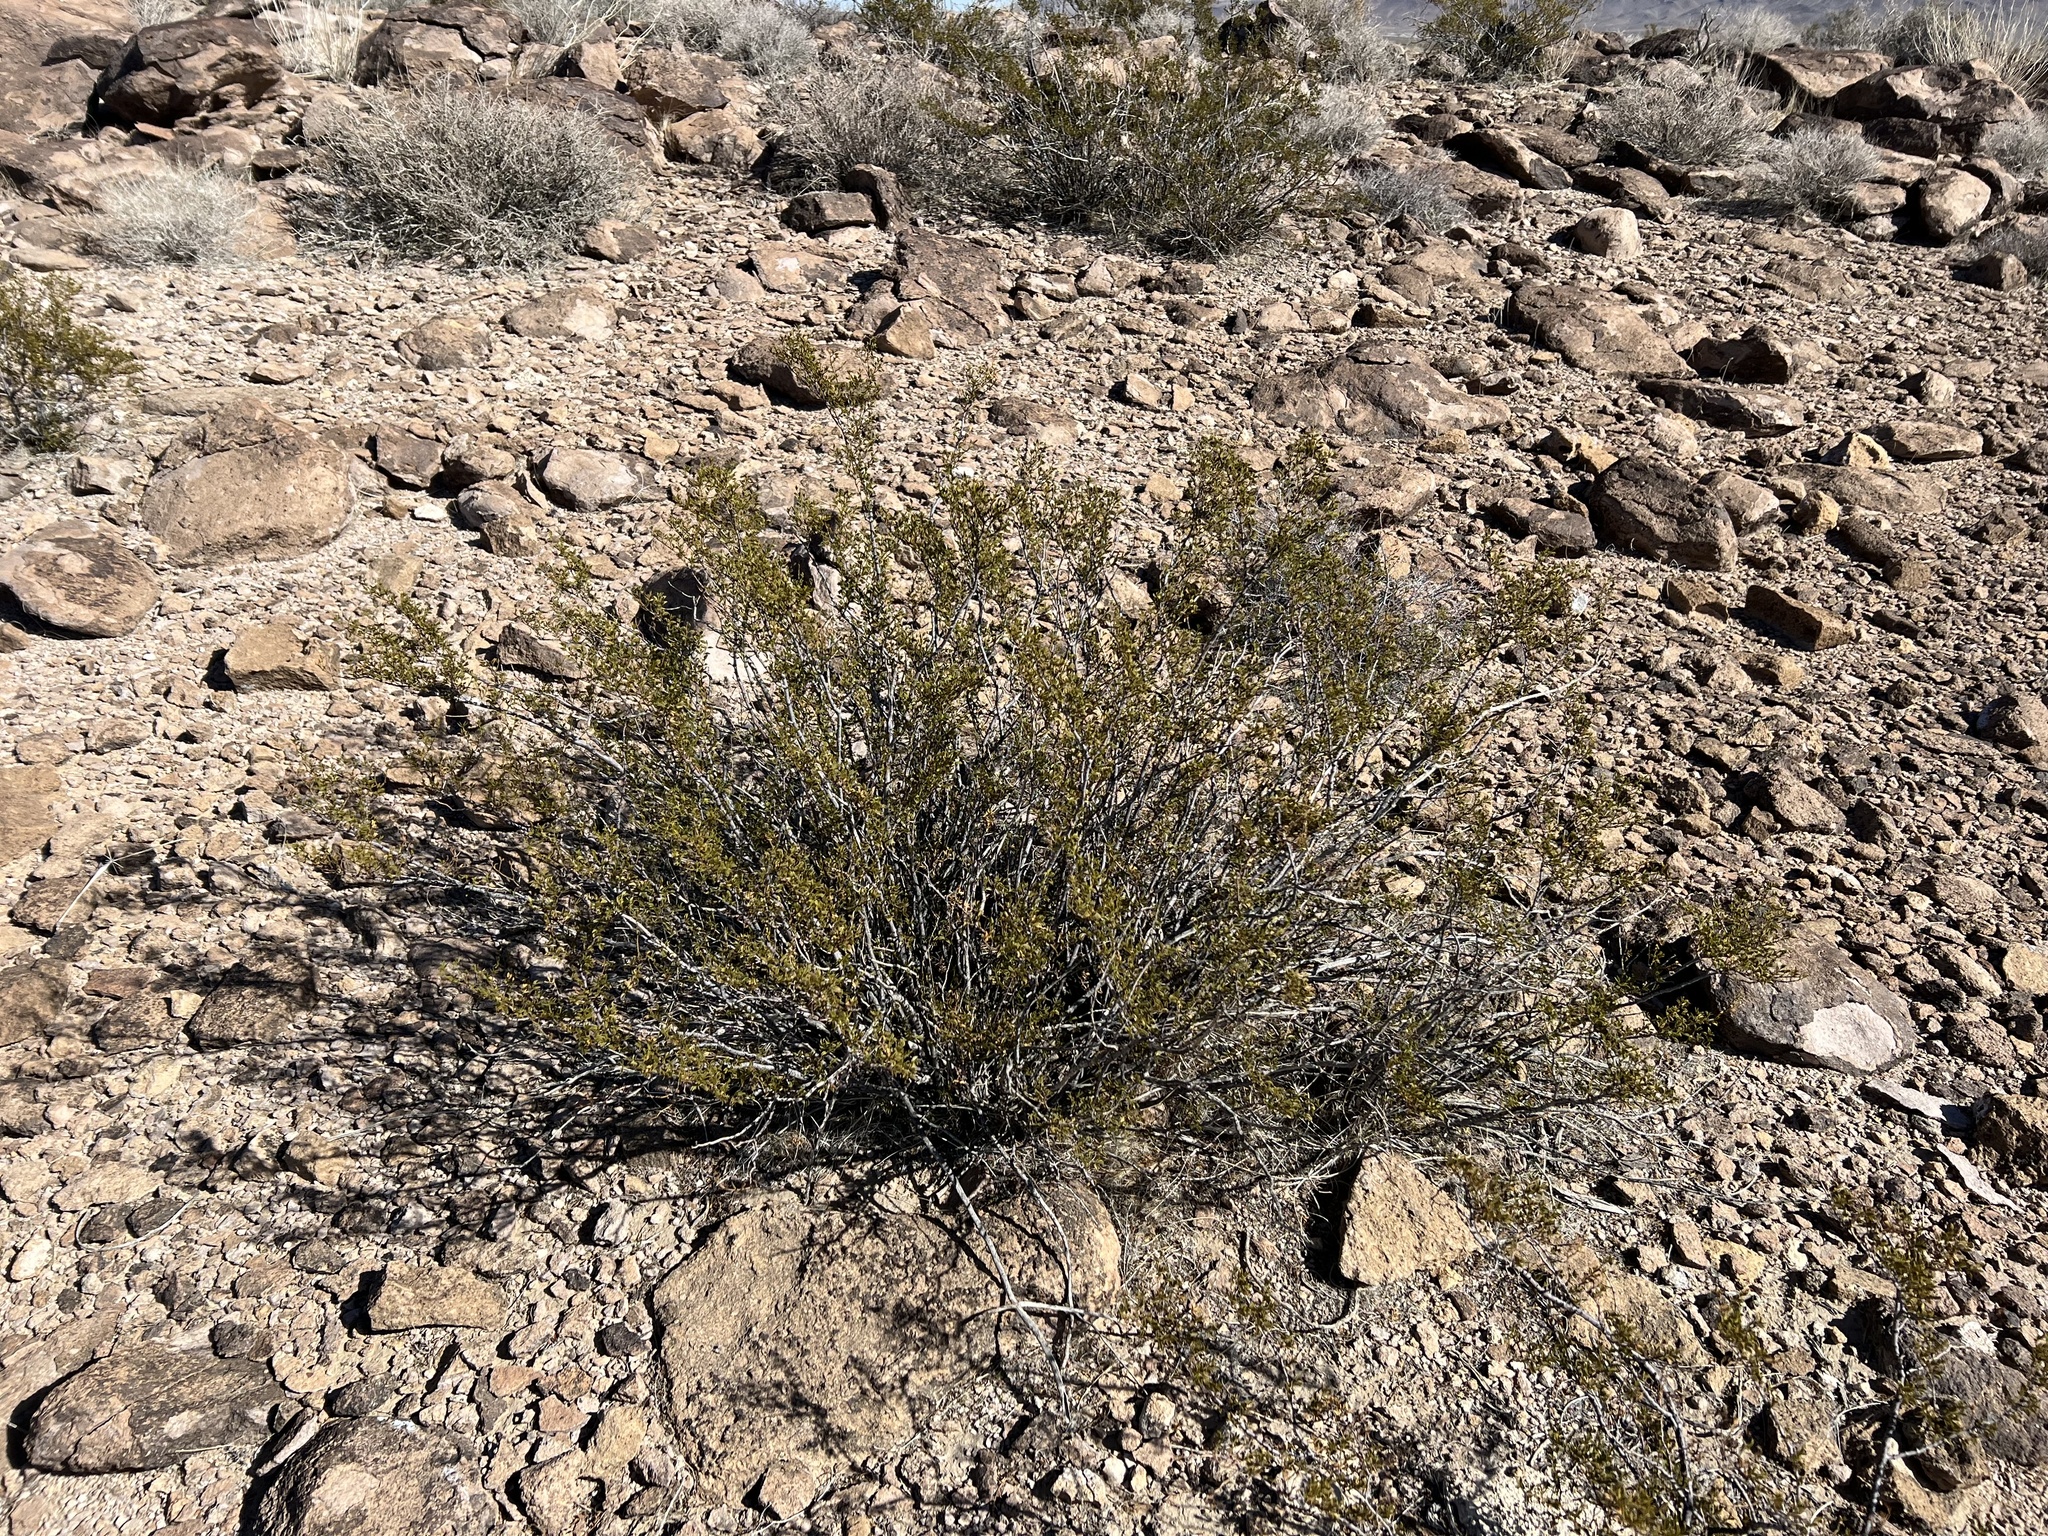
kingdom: Plantae
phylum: Tracheophyta
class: Magnoliopsida
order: Zygophyllales
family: Zygophyllaceae
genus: Larrea
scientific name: Larrea tridentata
